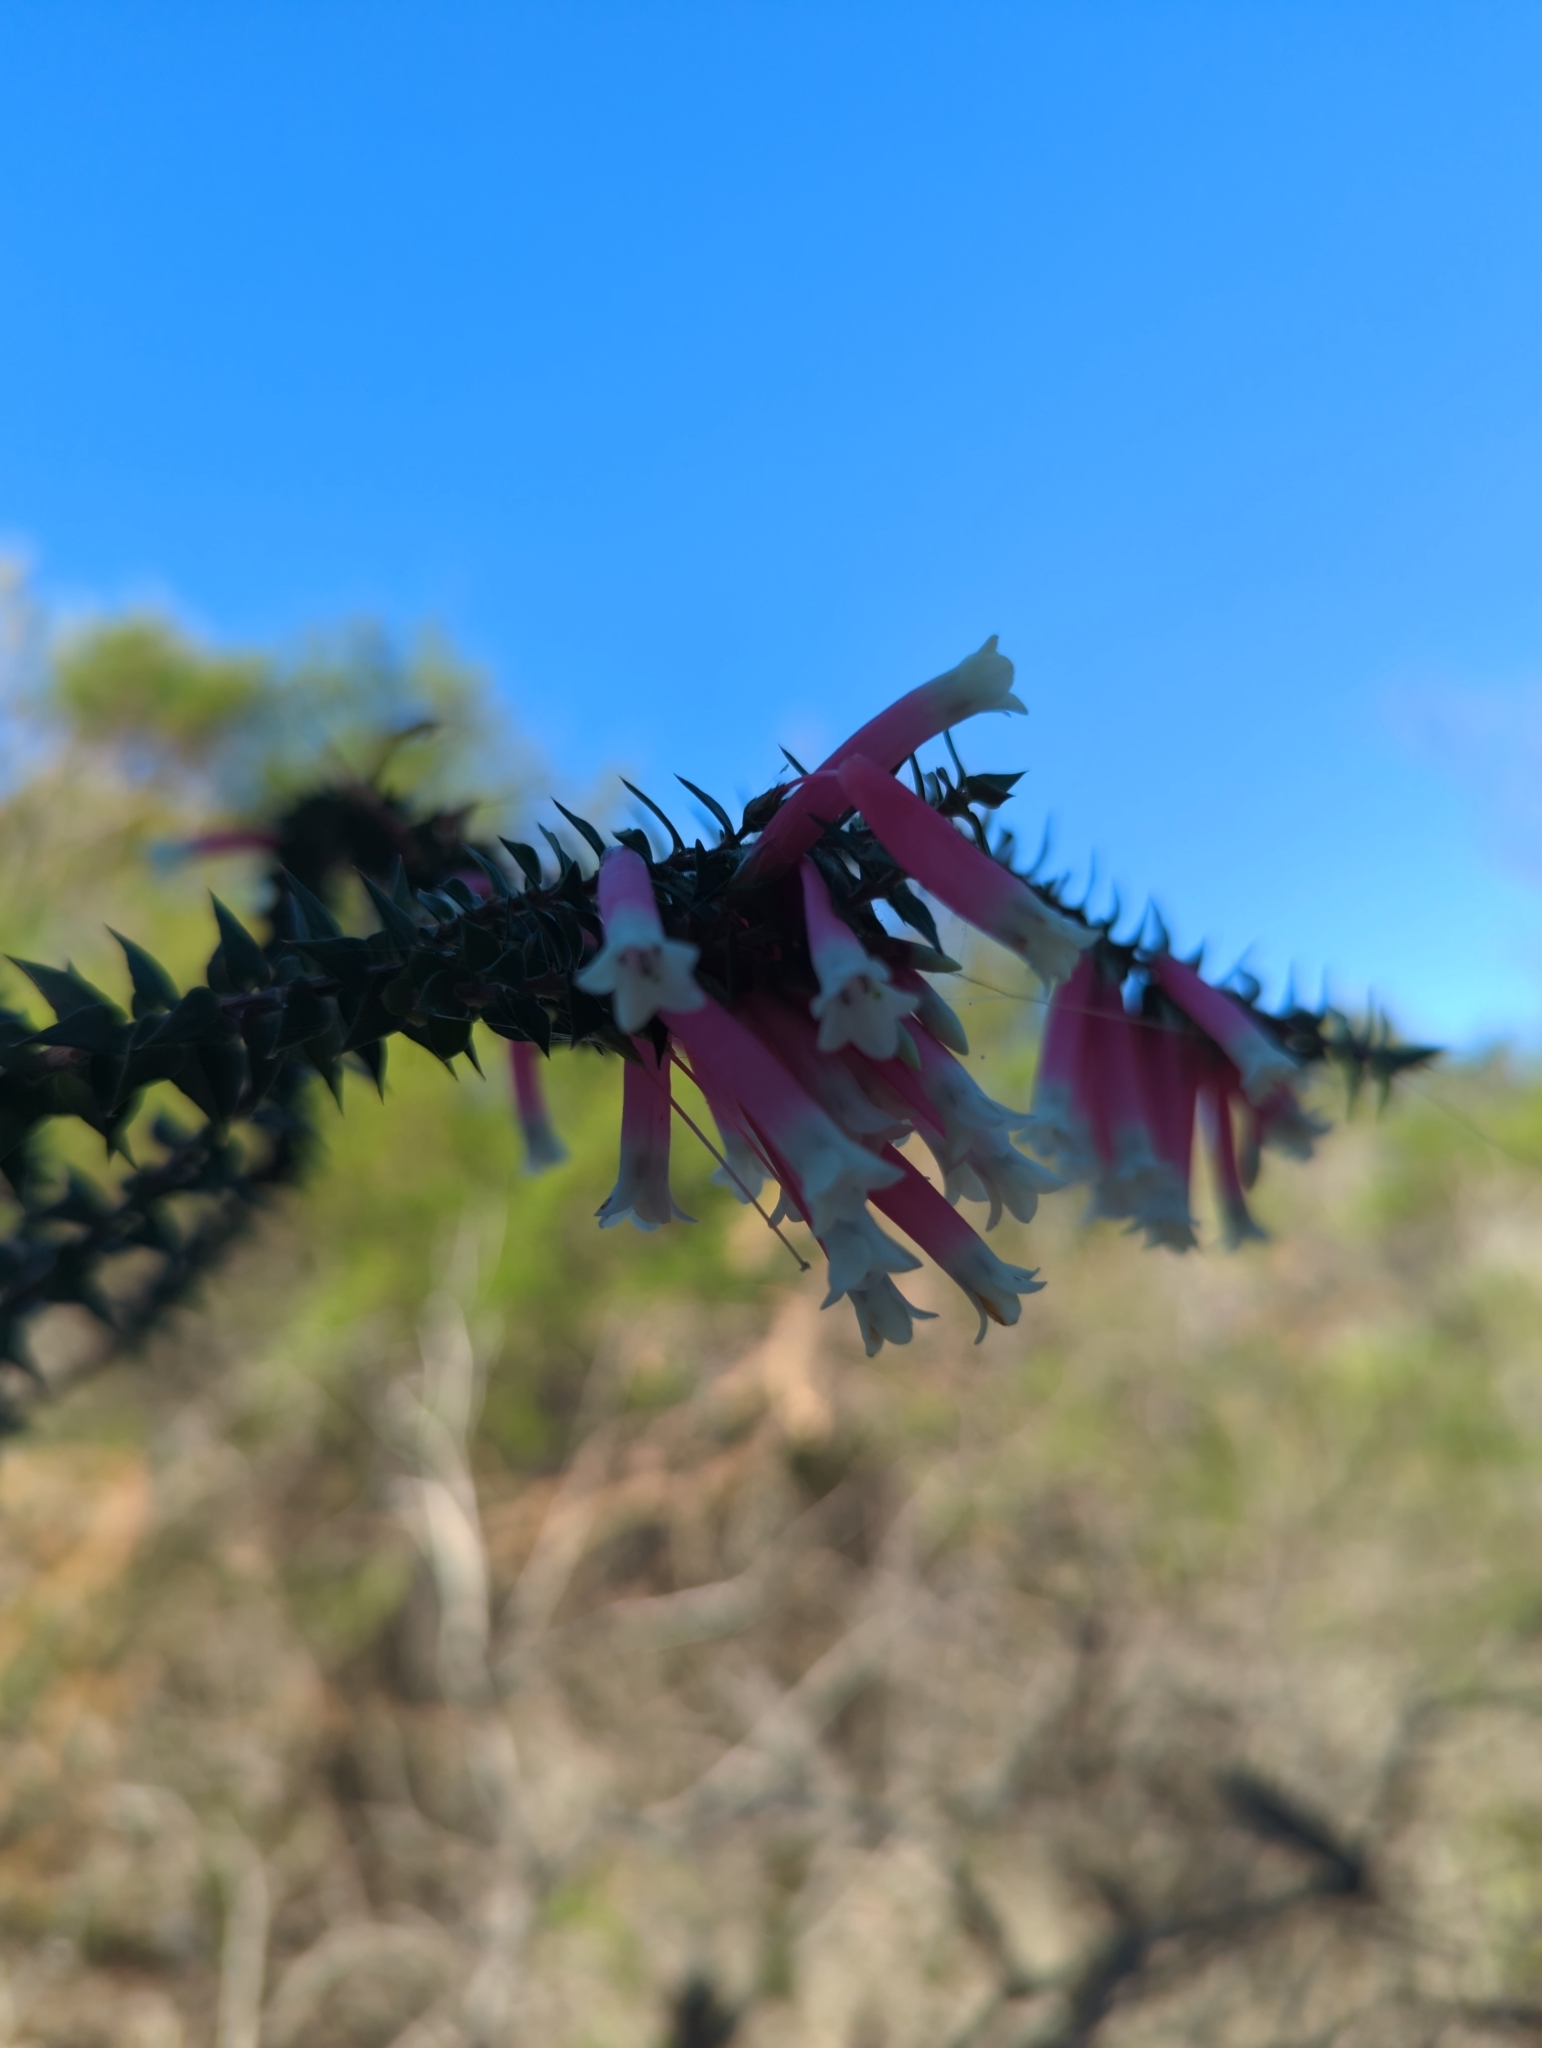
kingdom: Plantae
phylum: Tracheophyta
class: Magnoliopsida
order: Ericales
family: Ericaceae
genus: Epacris
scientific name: Epacris longiflora
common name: Fuchsia-heath
